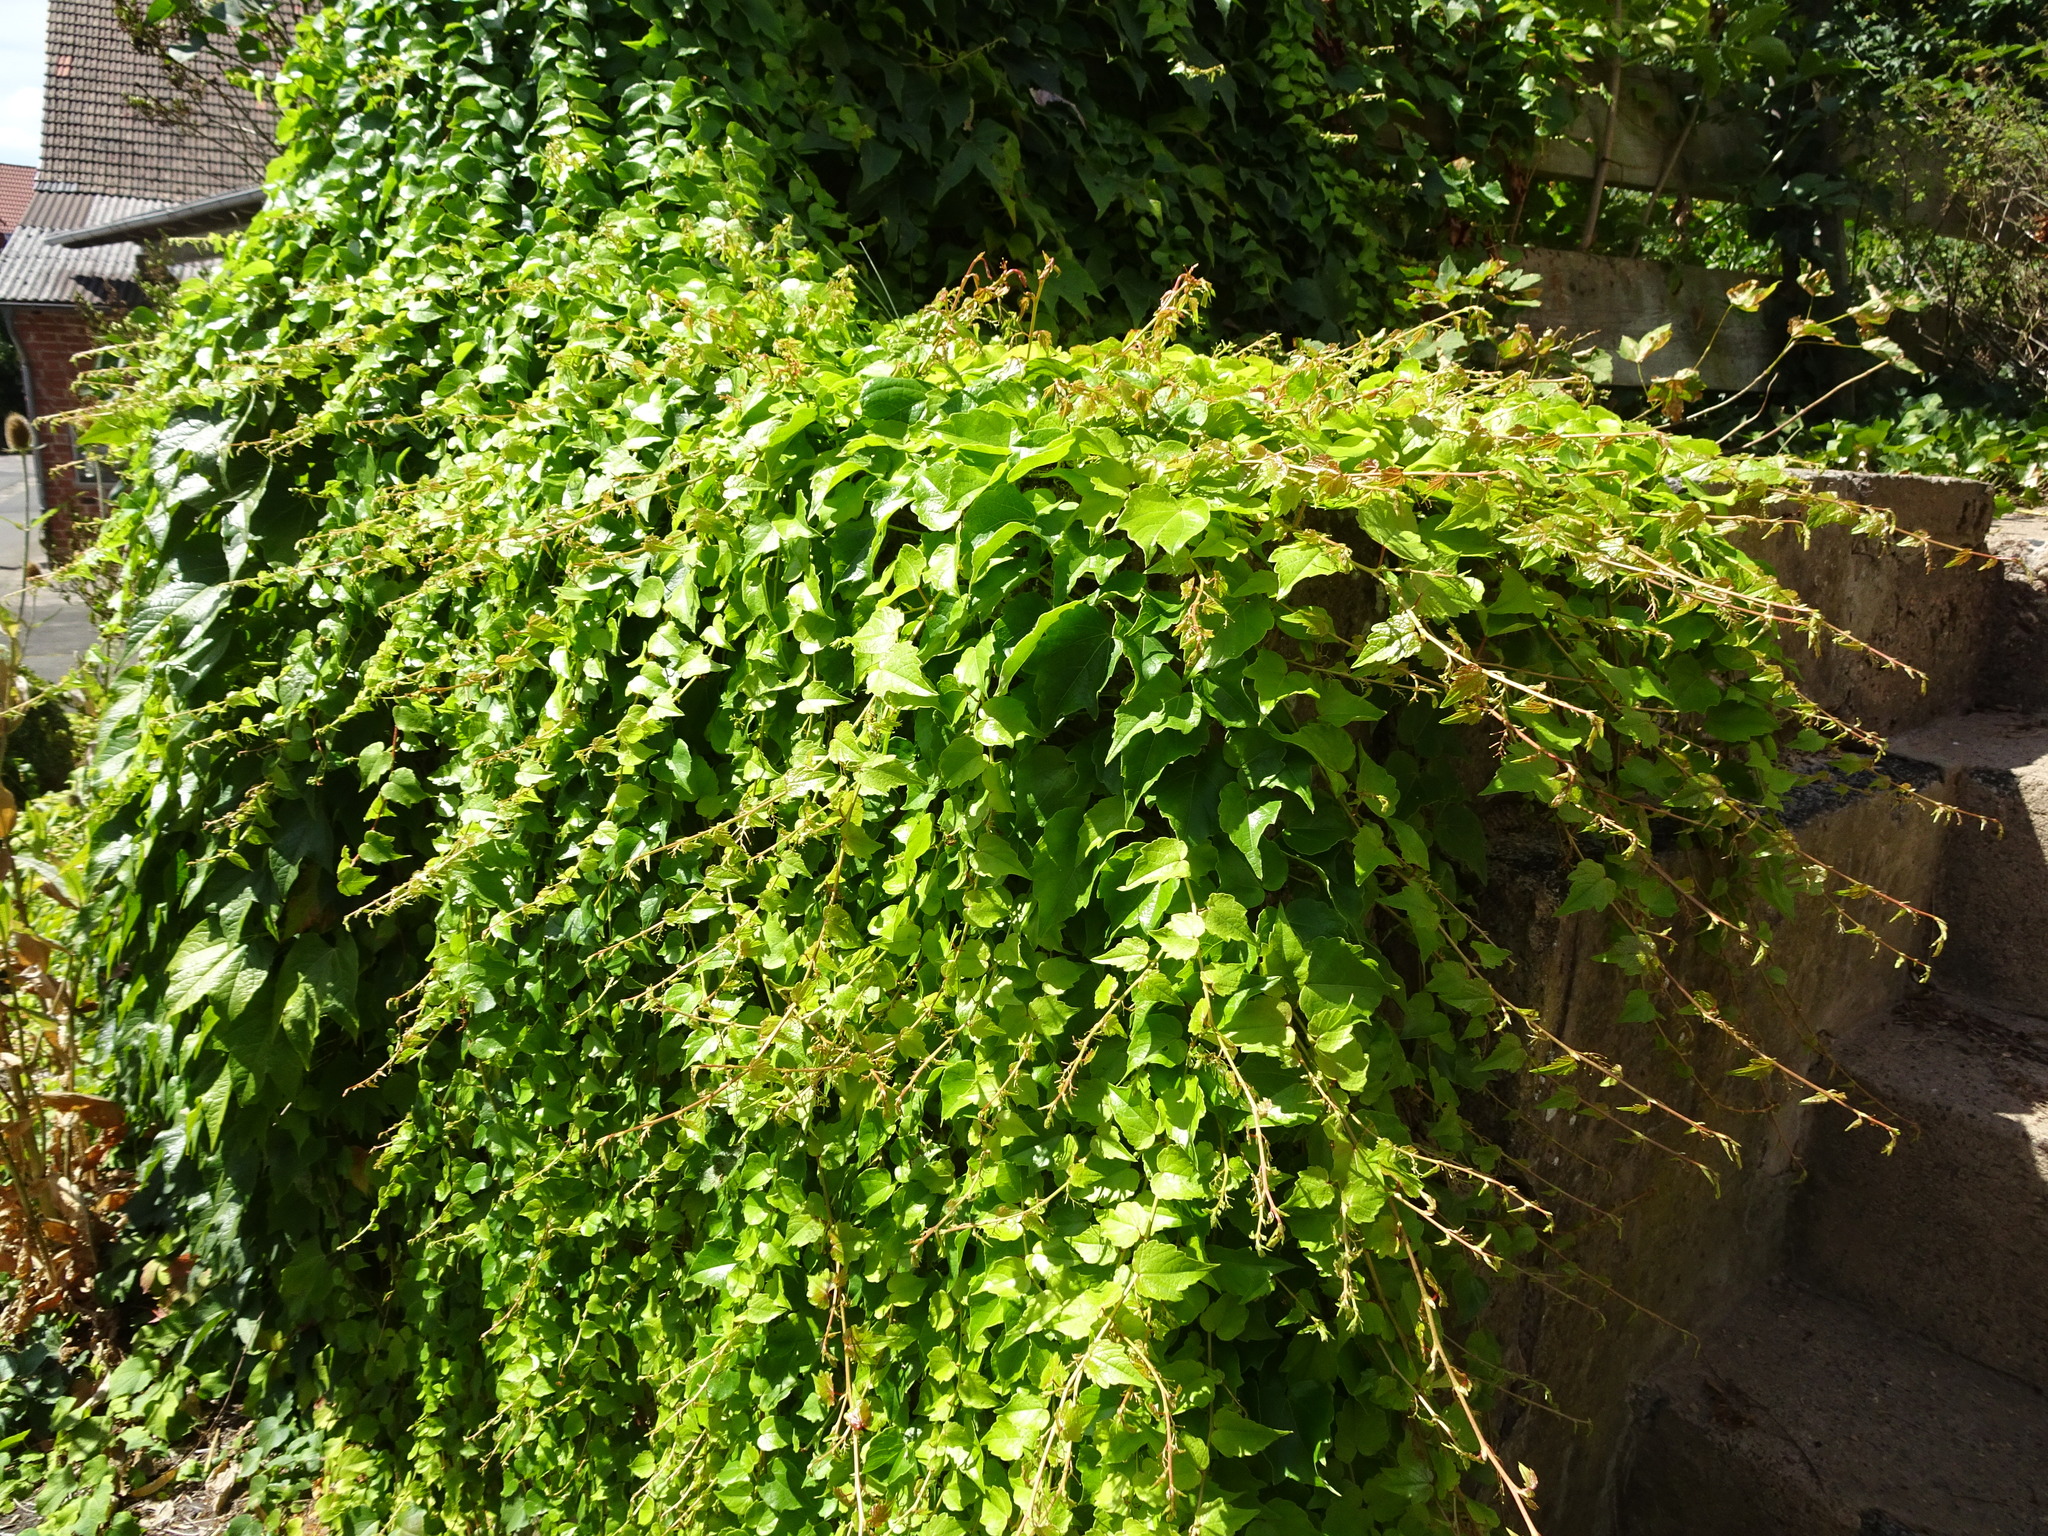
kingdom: Plantae
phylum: Tracheophyta
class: Magnoliopsida
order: Vitales
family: Vitaceae
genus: Parthenocissus
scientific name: Parthenocissus tricuspidata
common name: Boston ivy
